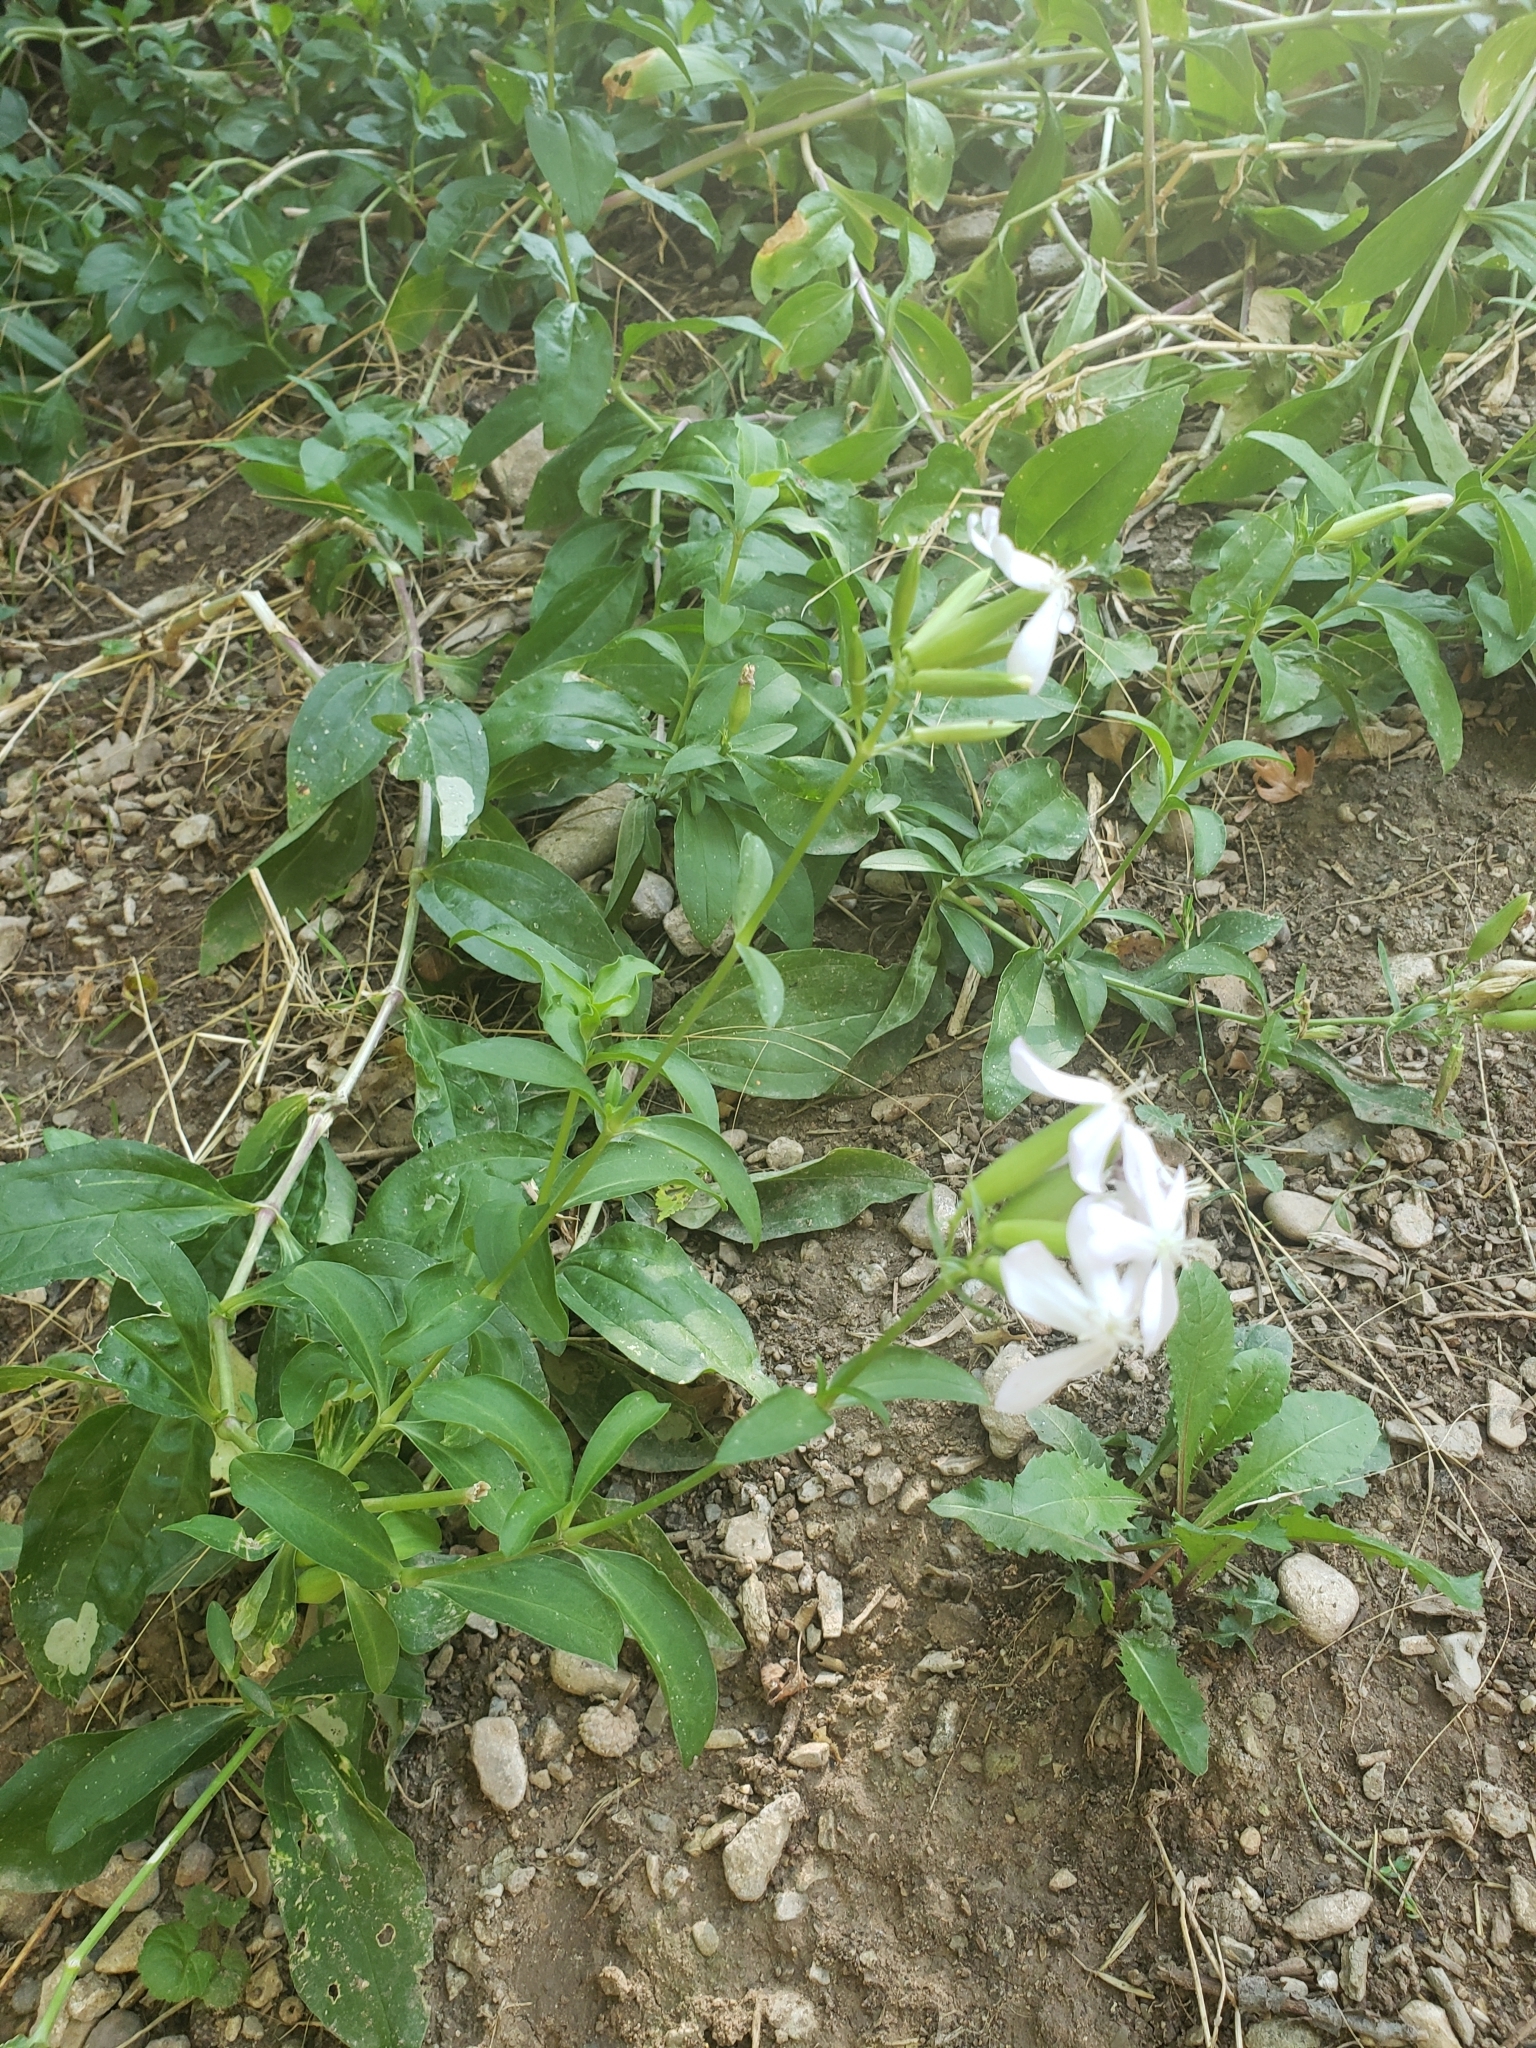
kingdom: Plantae
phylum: Tracheophyta
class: Magnoliopsida
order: Caryophyllales
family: Caryophyllaceae
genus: Saponaria
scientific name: Saponaria officinalis
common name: Soapwort
